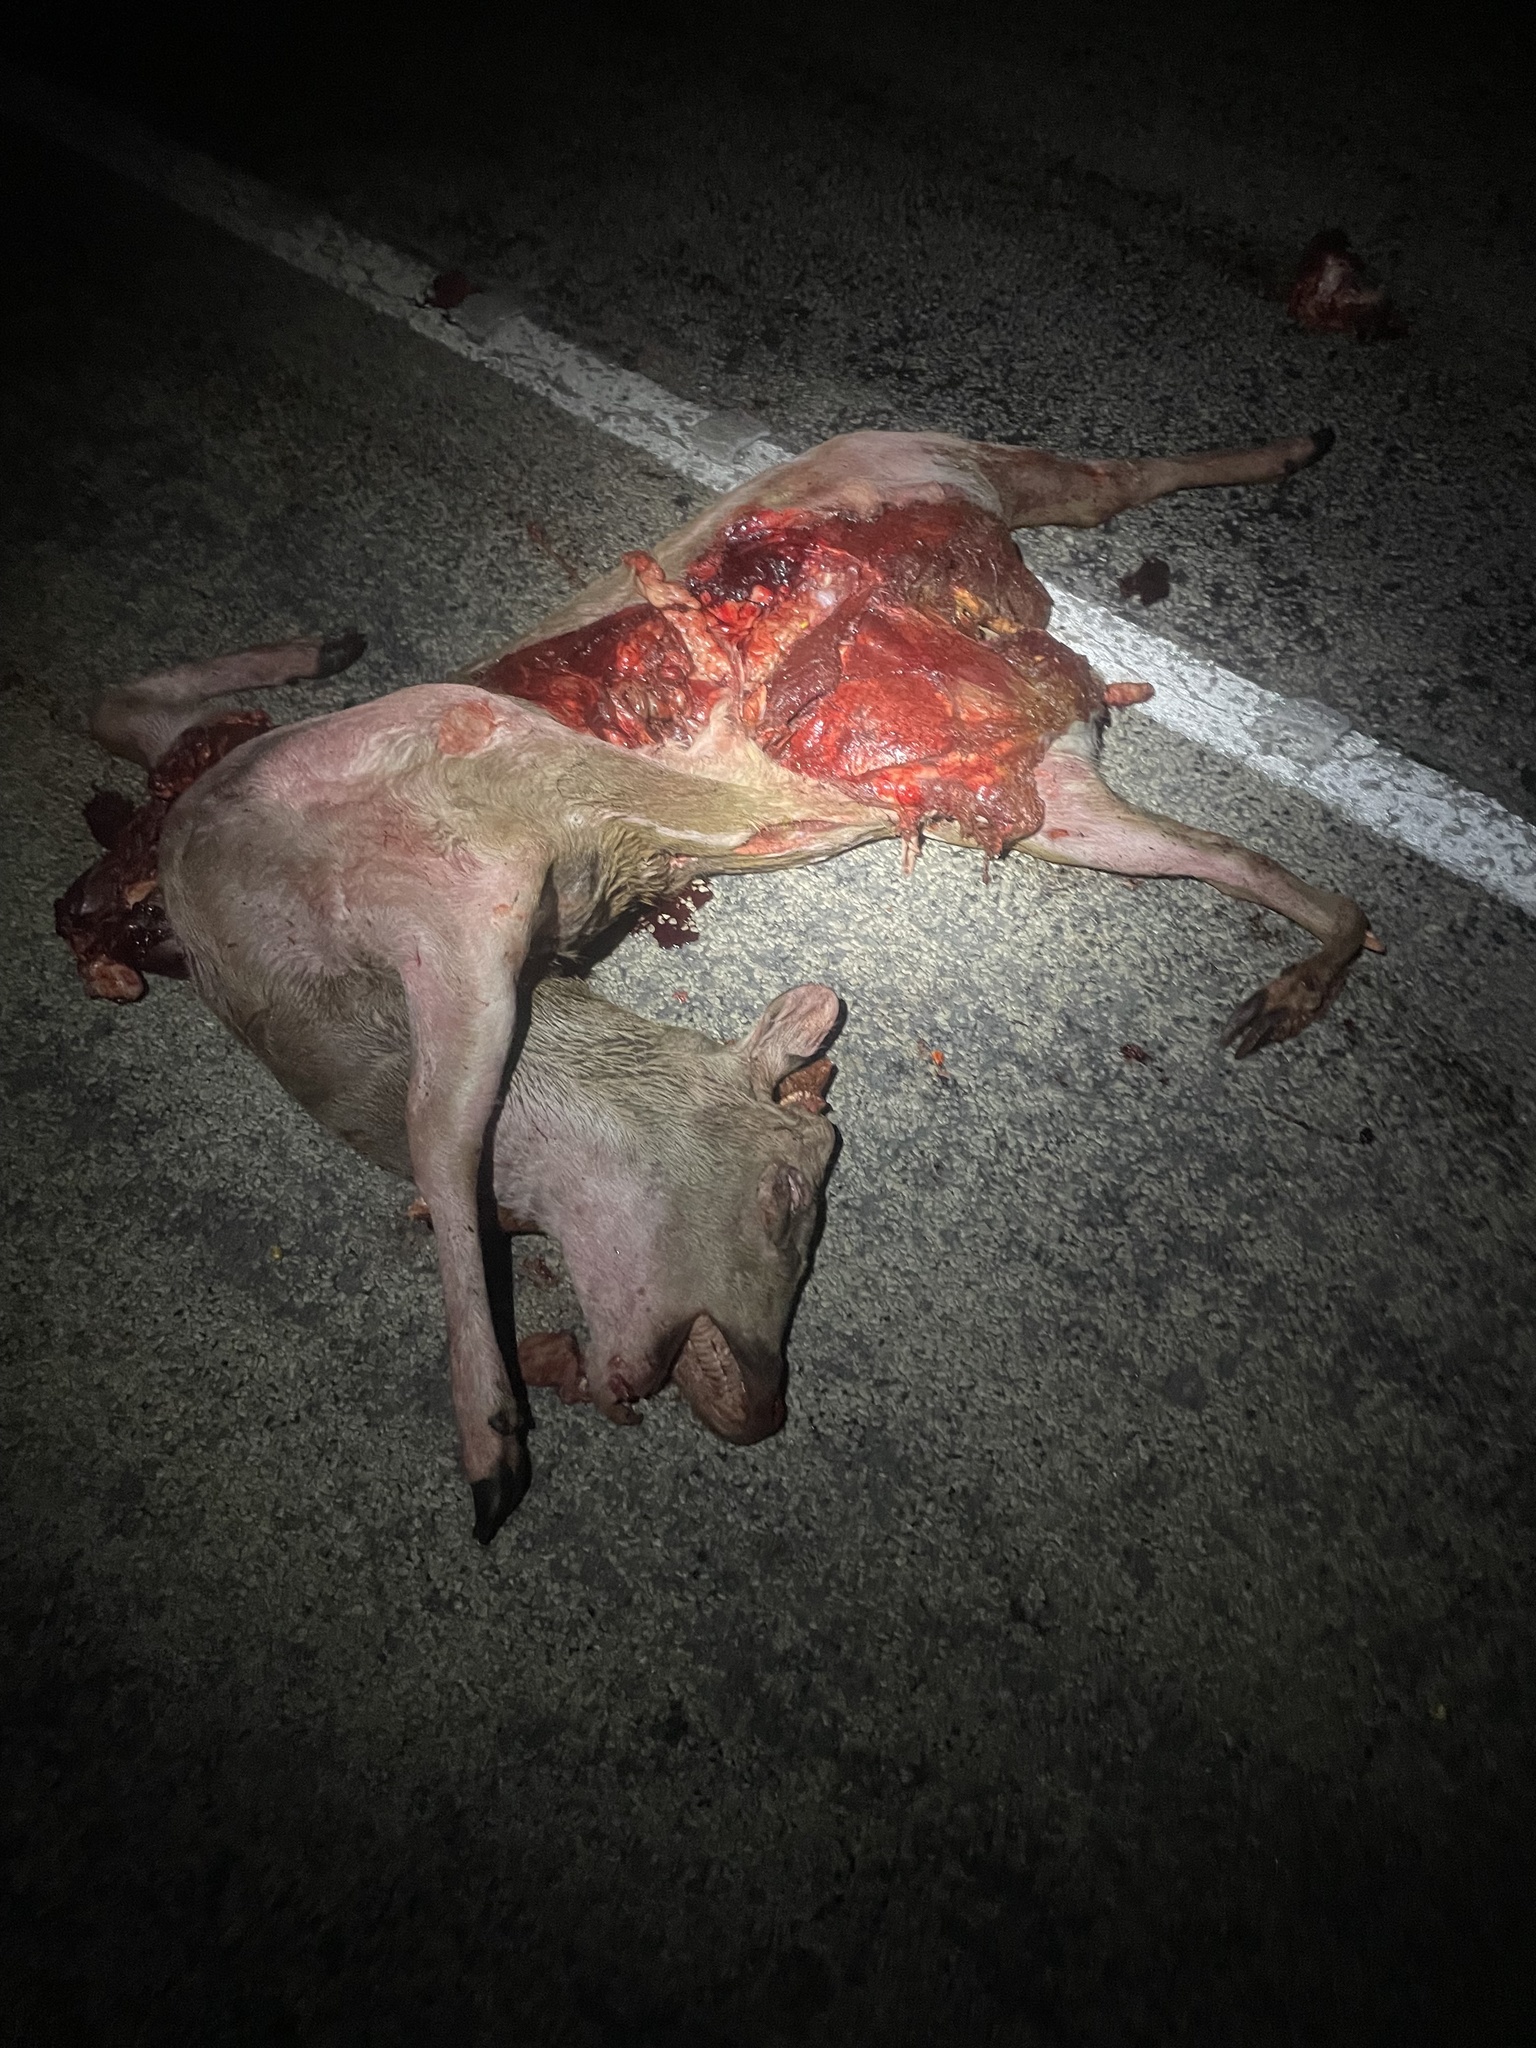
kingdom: Animalia
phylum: Chordata
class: Mammalia
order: Artiodactyla
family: Cervidae
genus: Axis
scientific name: Axis axis
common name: Chital
